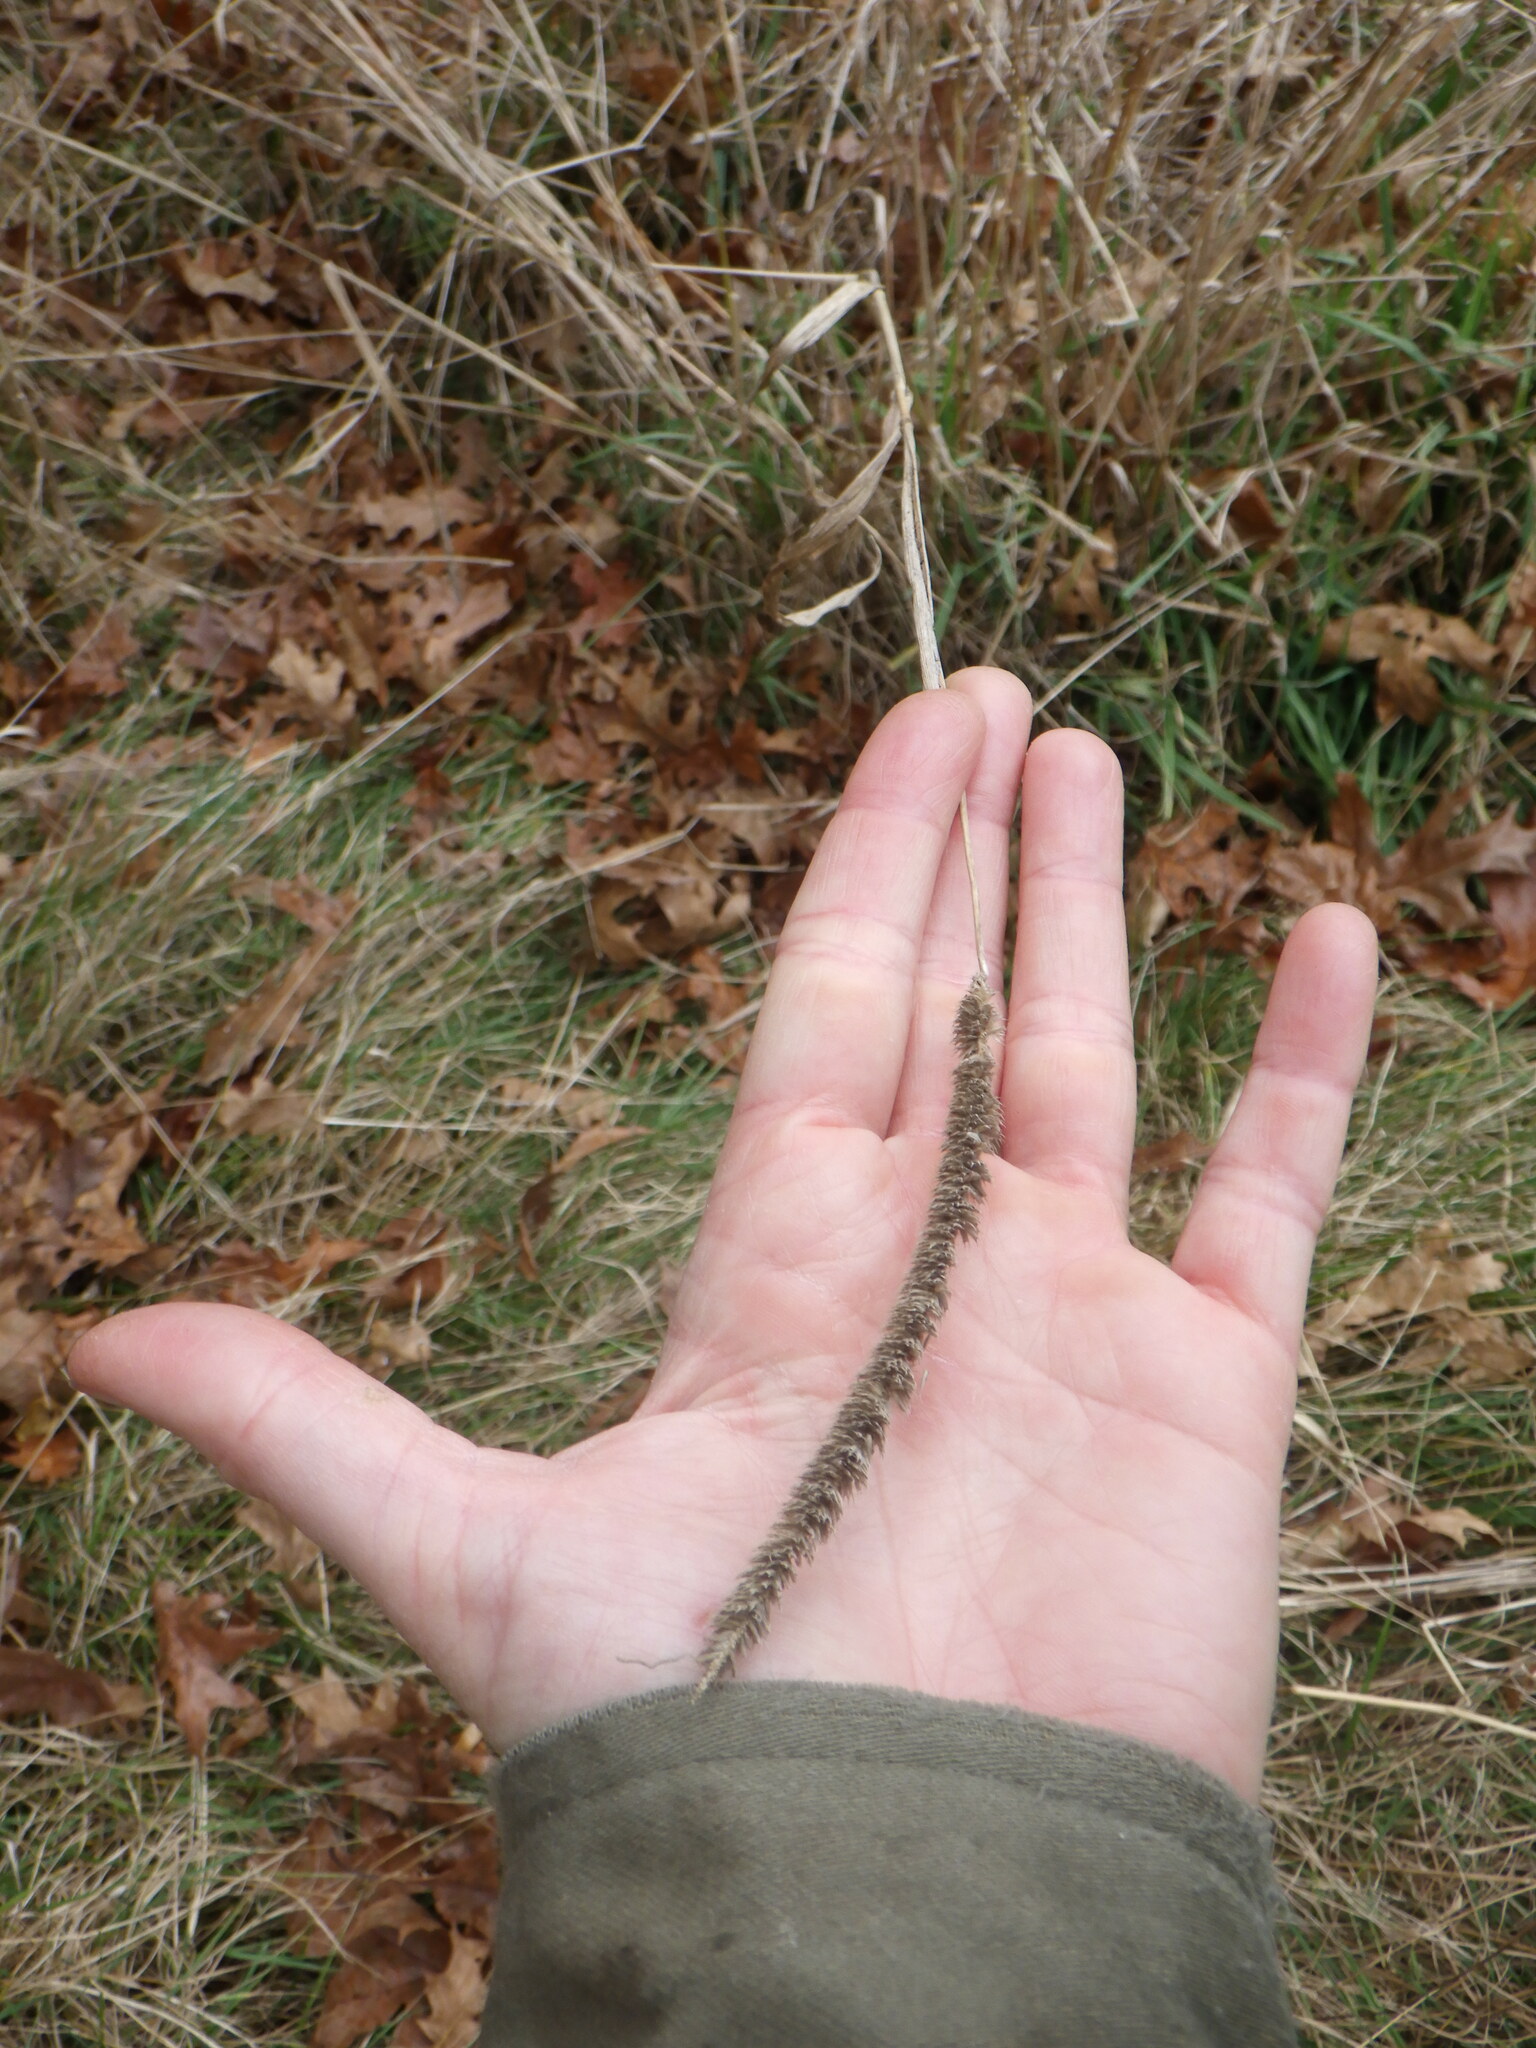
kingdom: Plantae
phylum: Tracheophyta
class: Liliopsida
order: Poales
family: Poaceae
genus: Phleum
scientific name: Phleum pratense
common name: Timothy grass
